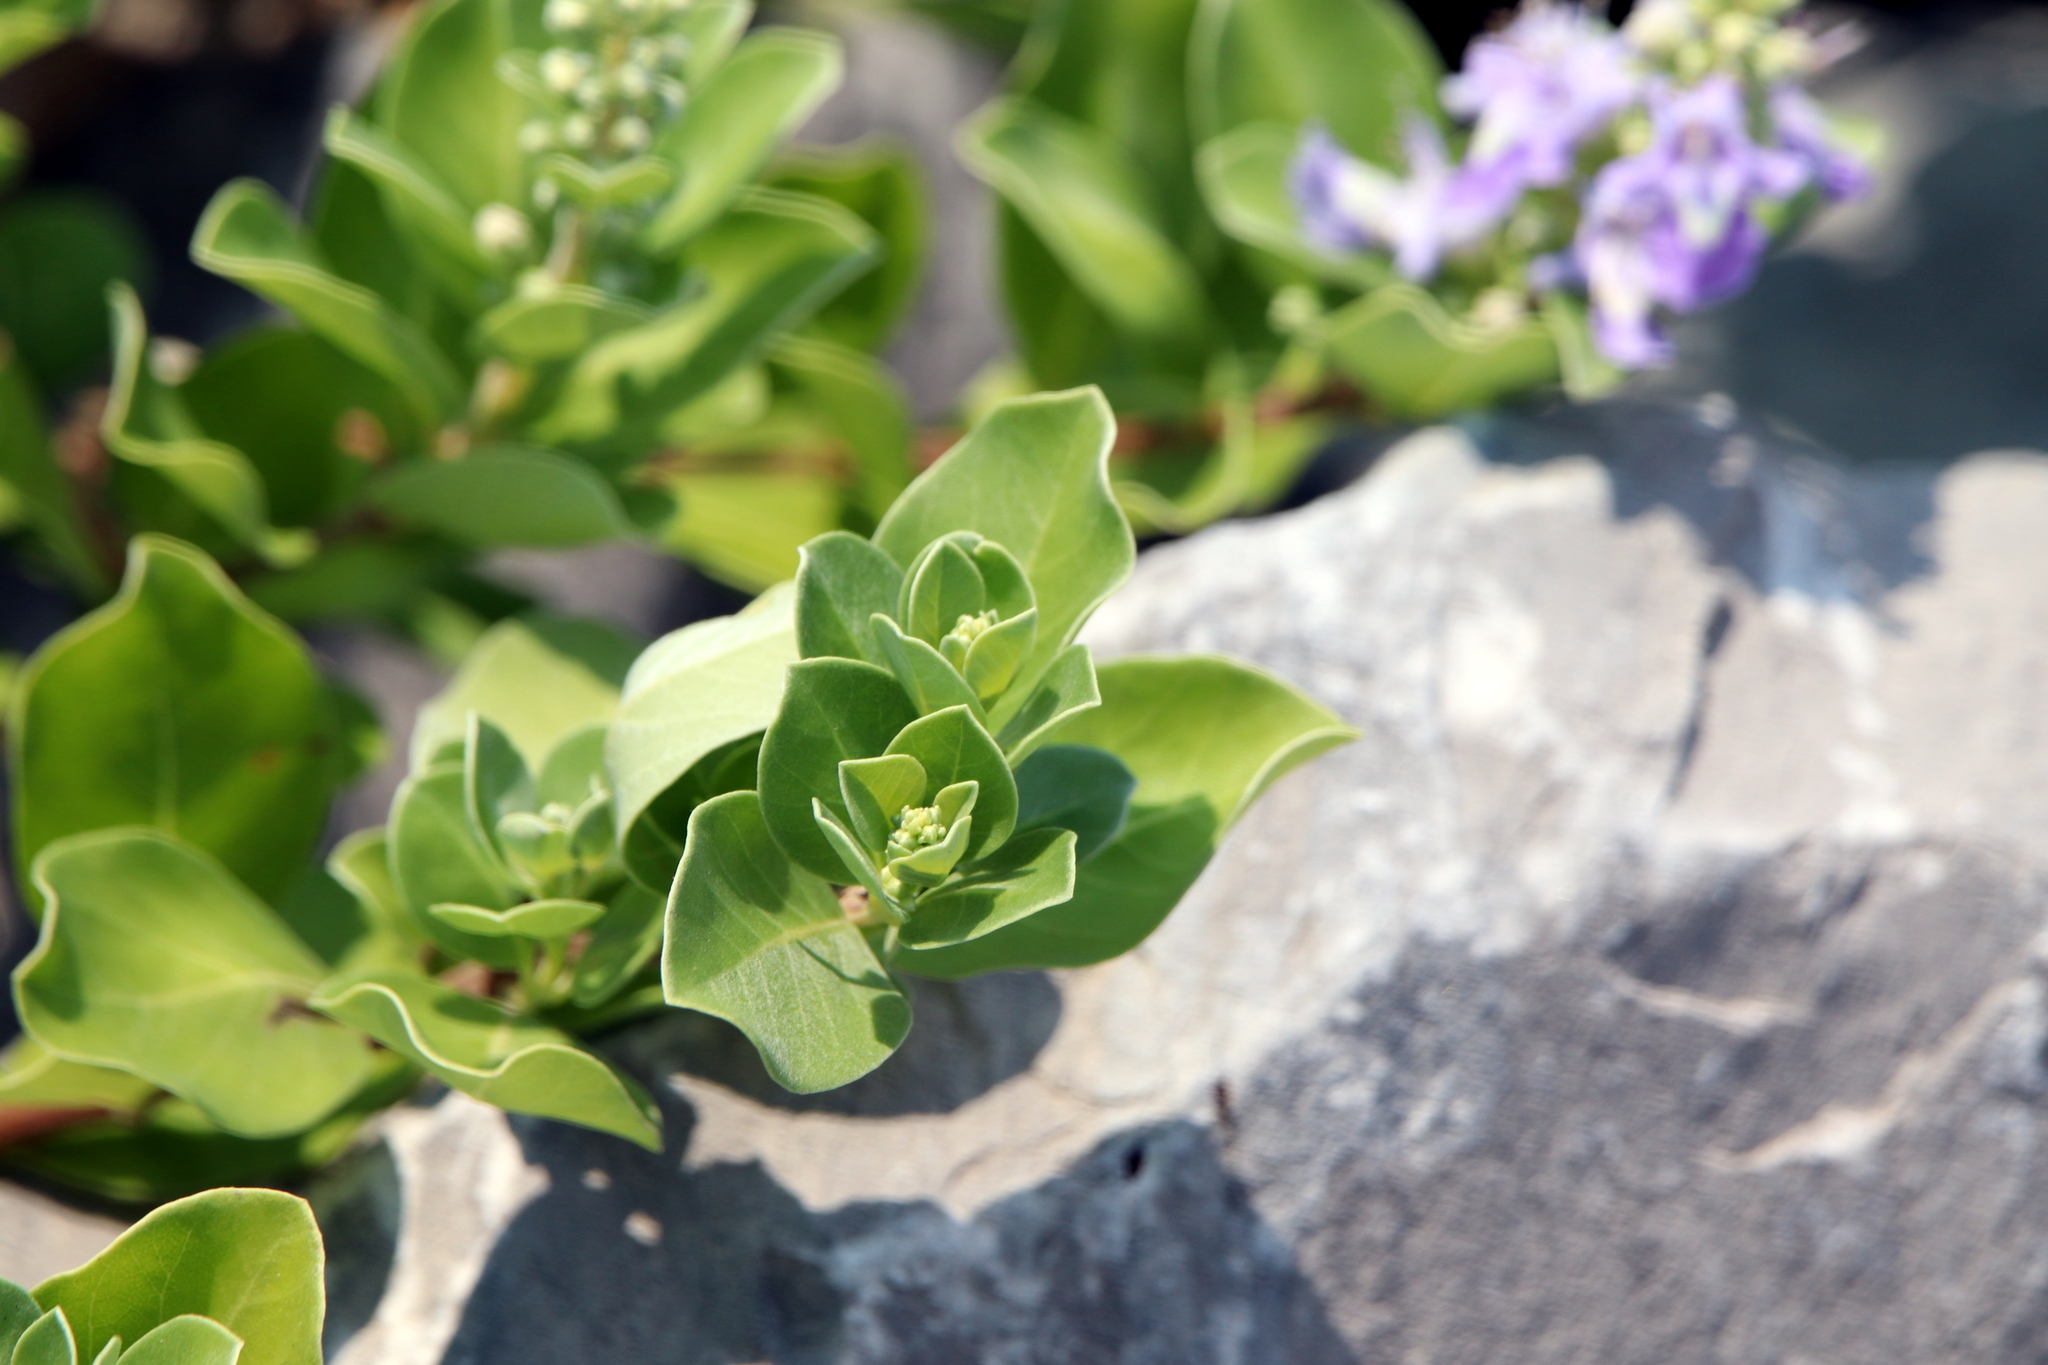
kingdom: Plantae
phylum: Tracheophyta
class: Magnoliopsida
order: Lamiales
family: Lamiaceae
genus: Vitex
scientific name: Vitex rotundifolia
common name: Beach vitex
